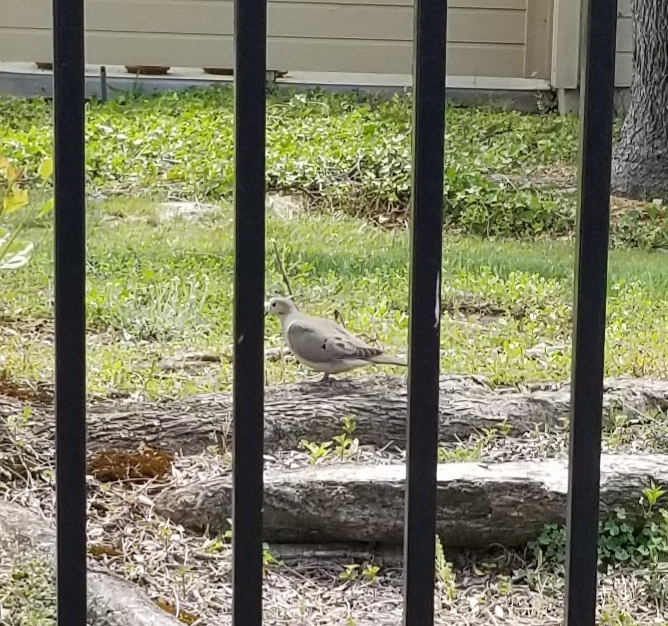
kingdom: Animalia
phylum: Chordata
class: Aves
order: Columbiformes
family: Columbidae
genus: Zenaida
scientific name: Zenaida macroura
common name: Mourning dove
